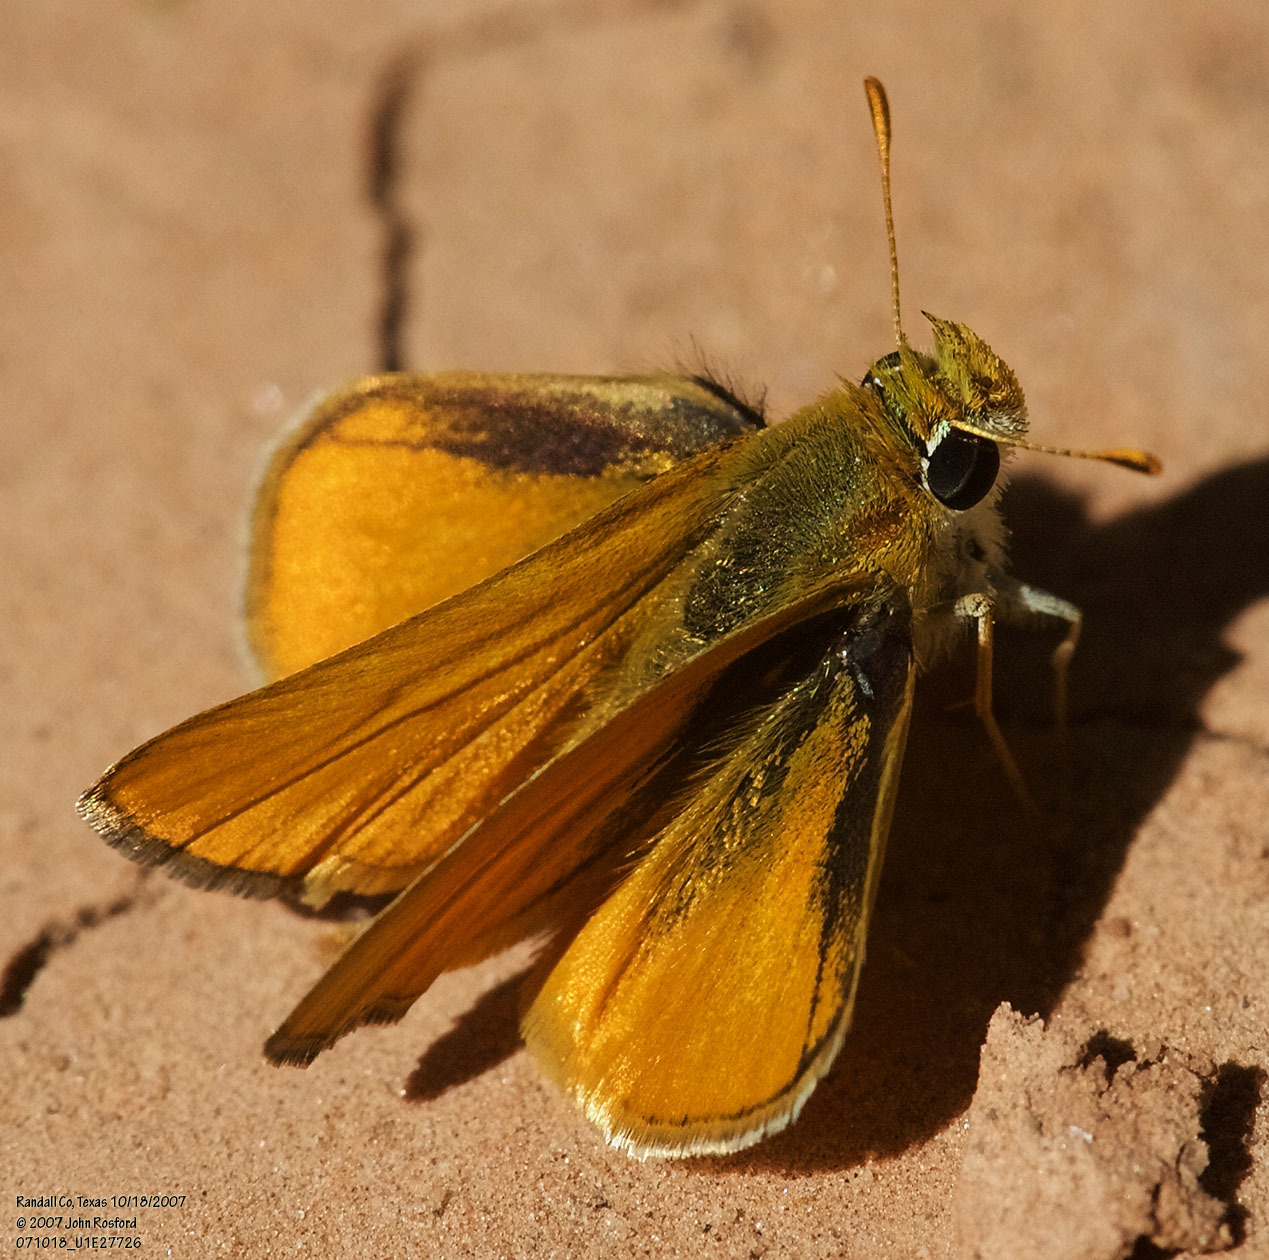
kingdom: Animalia
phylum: Arthropoda
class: Insecta
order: Lepidoptera
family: Hesperiidae
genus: Copaeodes
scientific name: Copaeodes minima
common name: Southern skipperling
